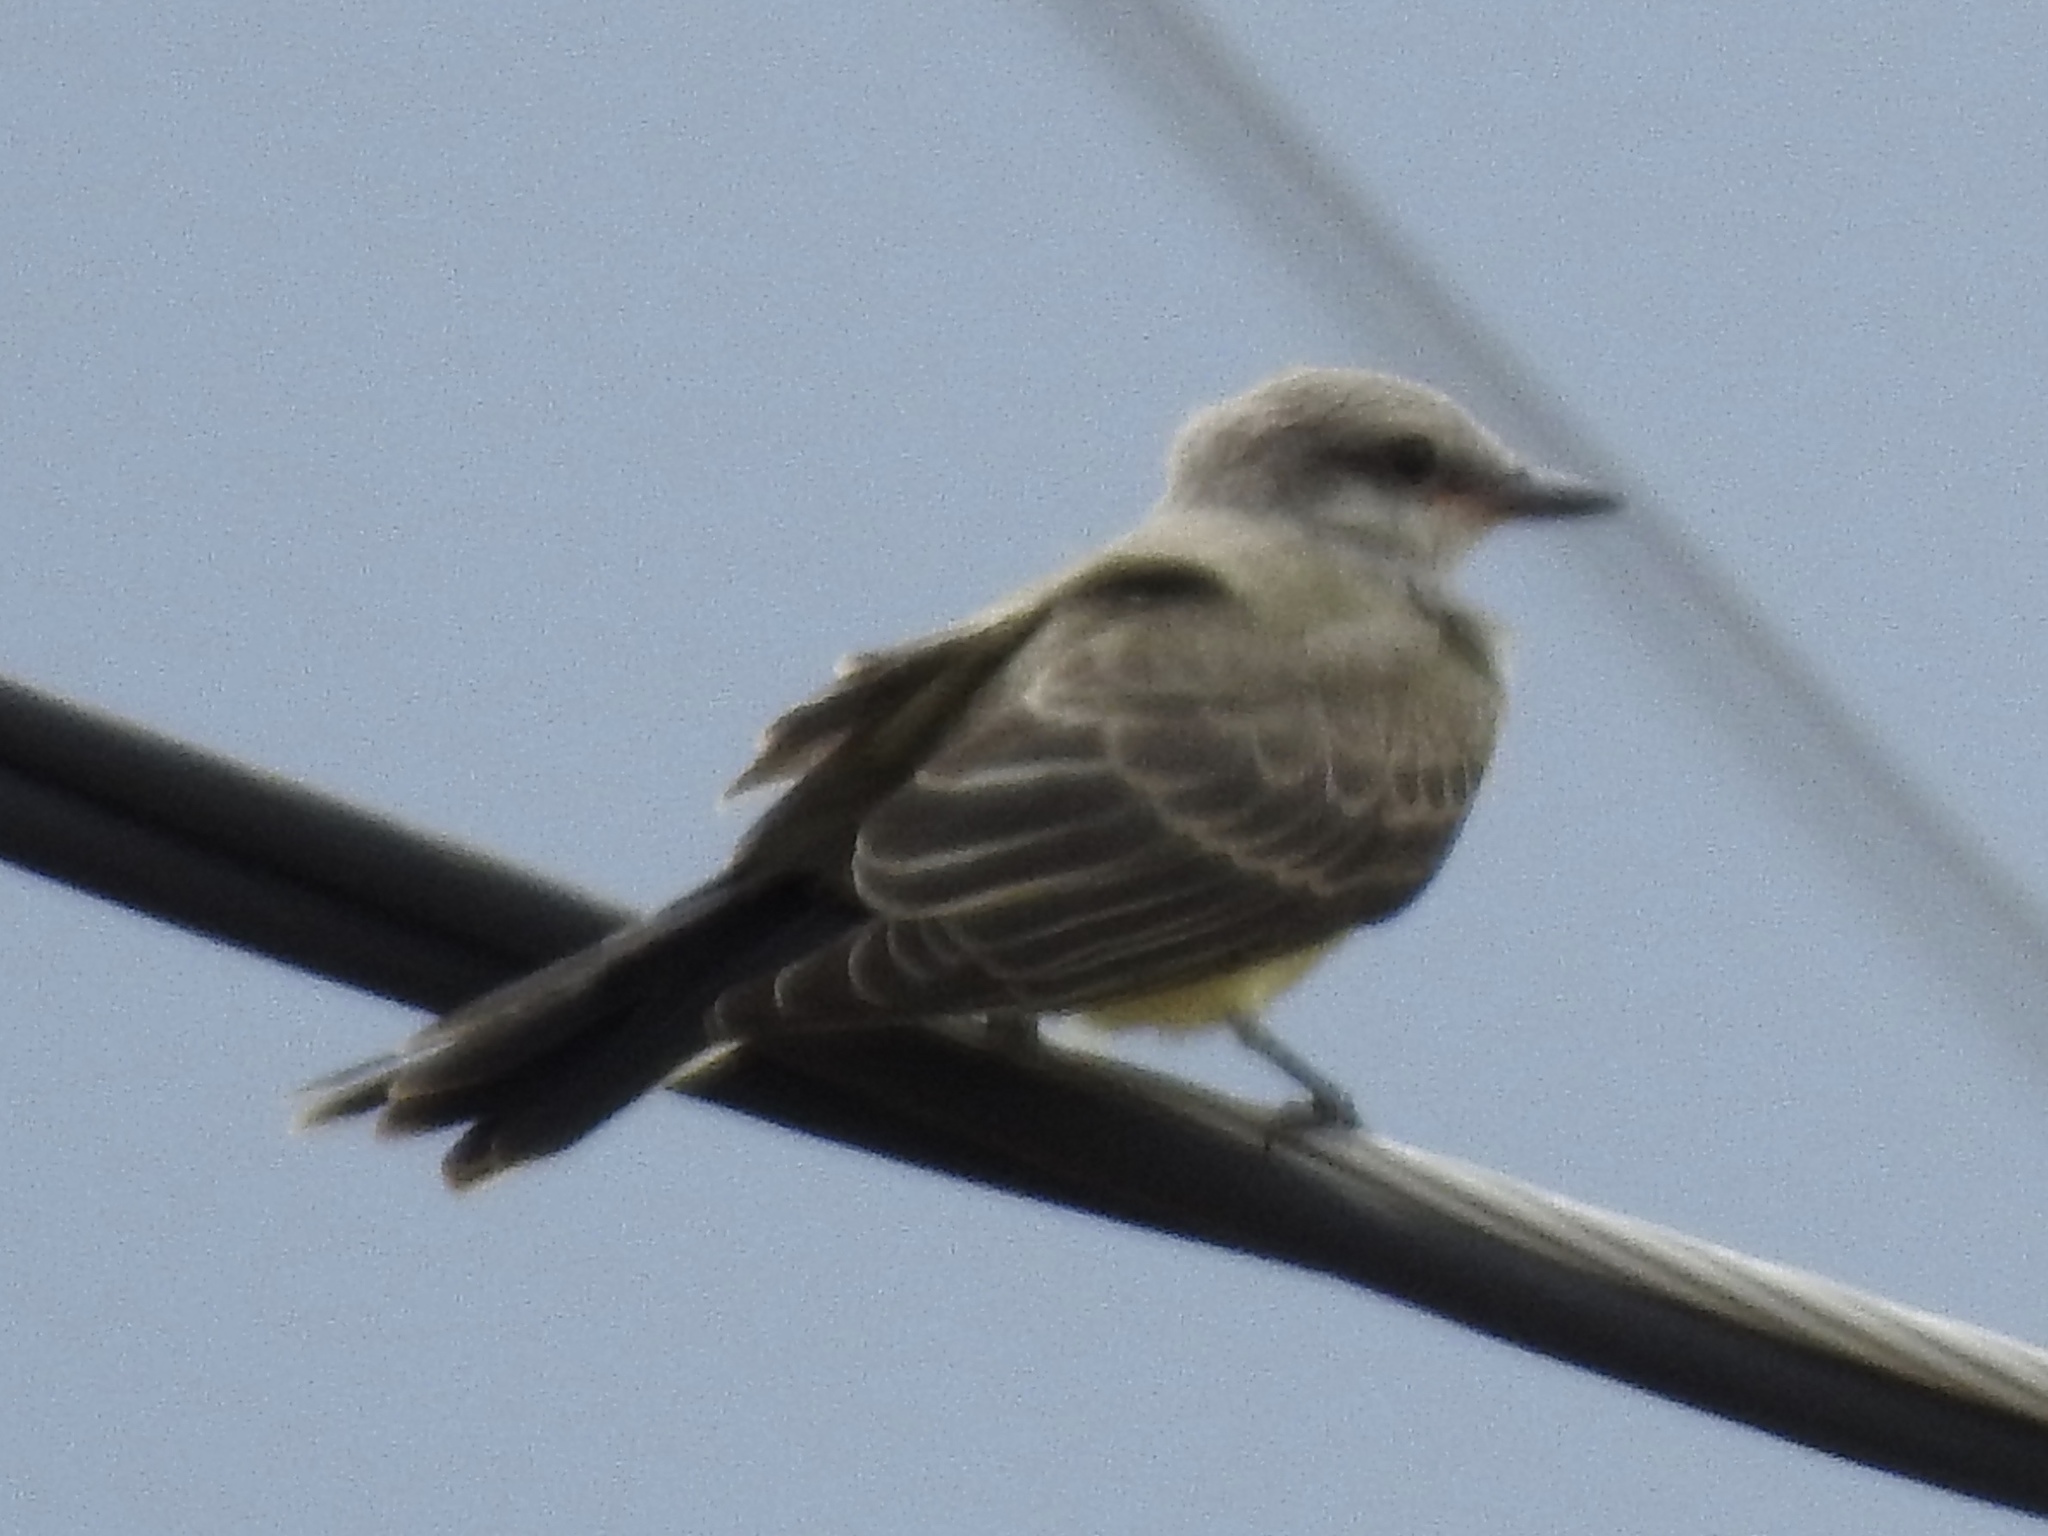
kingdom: Animalia
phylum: Chordata
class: Aves
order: Passeriformes
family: Tyrannidae
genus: Tyrannus
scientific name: Tyrannus verticalis
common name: Western kingbird
